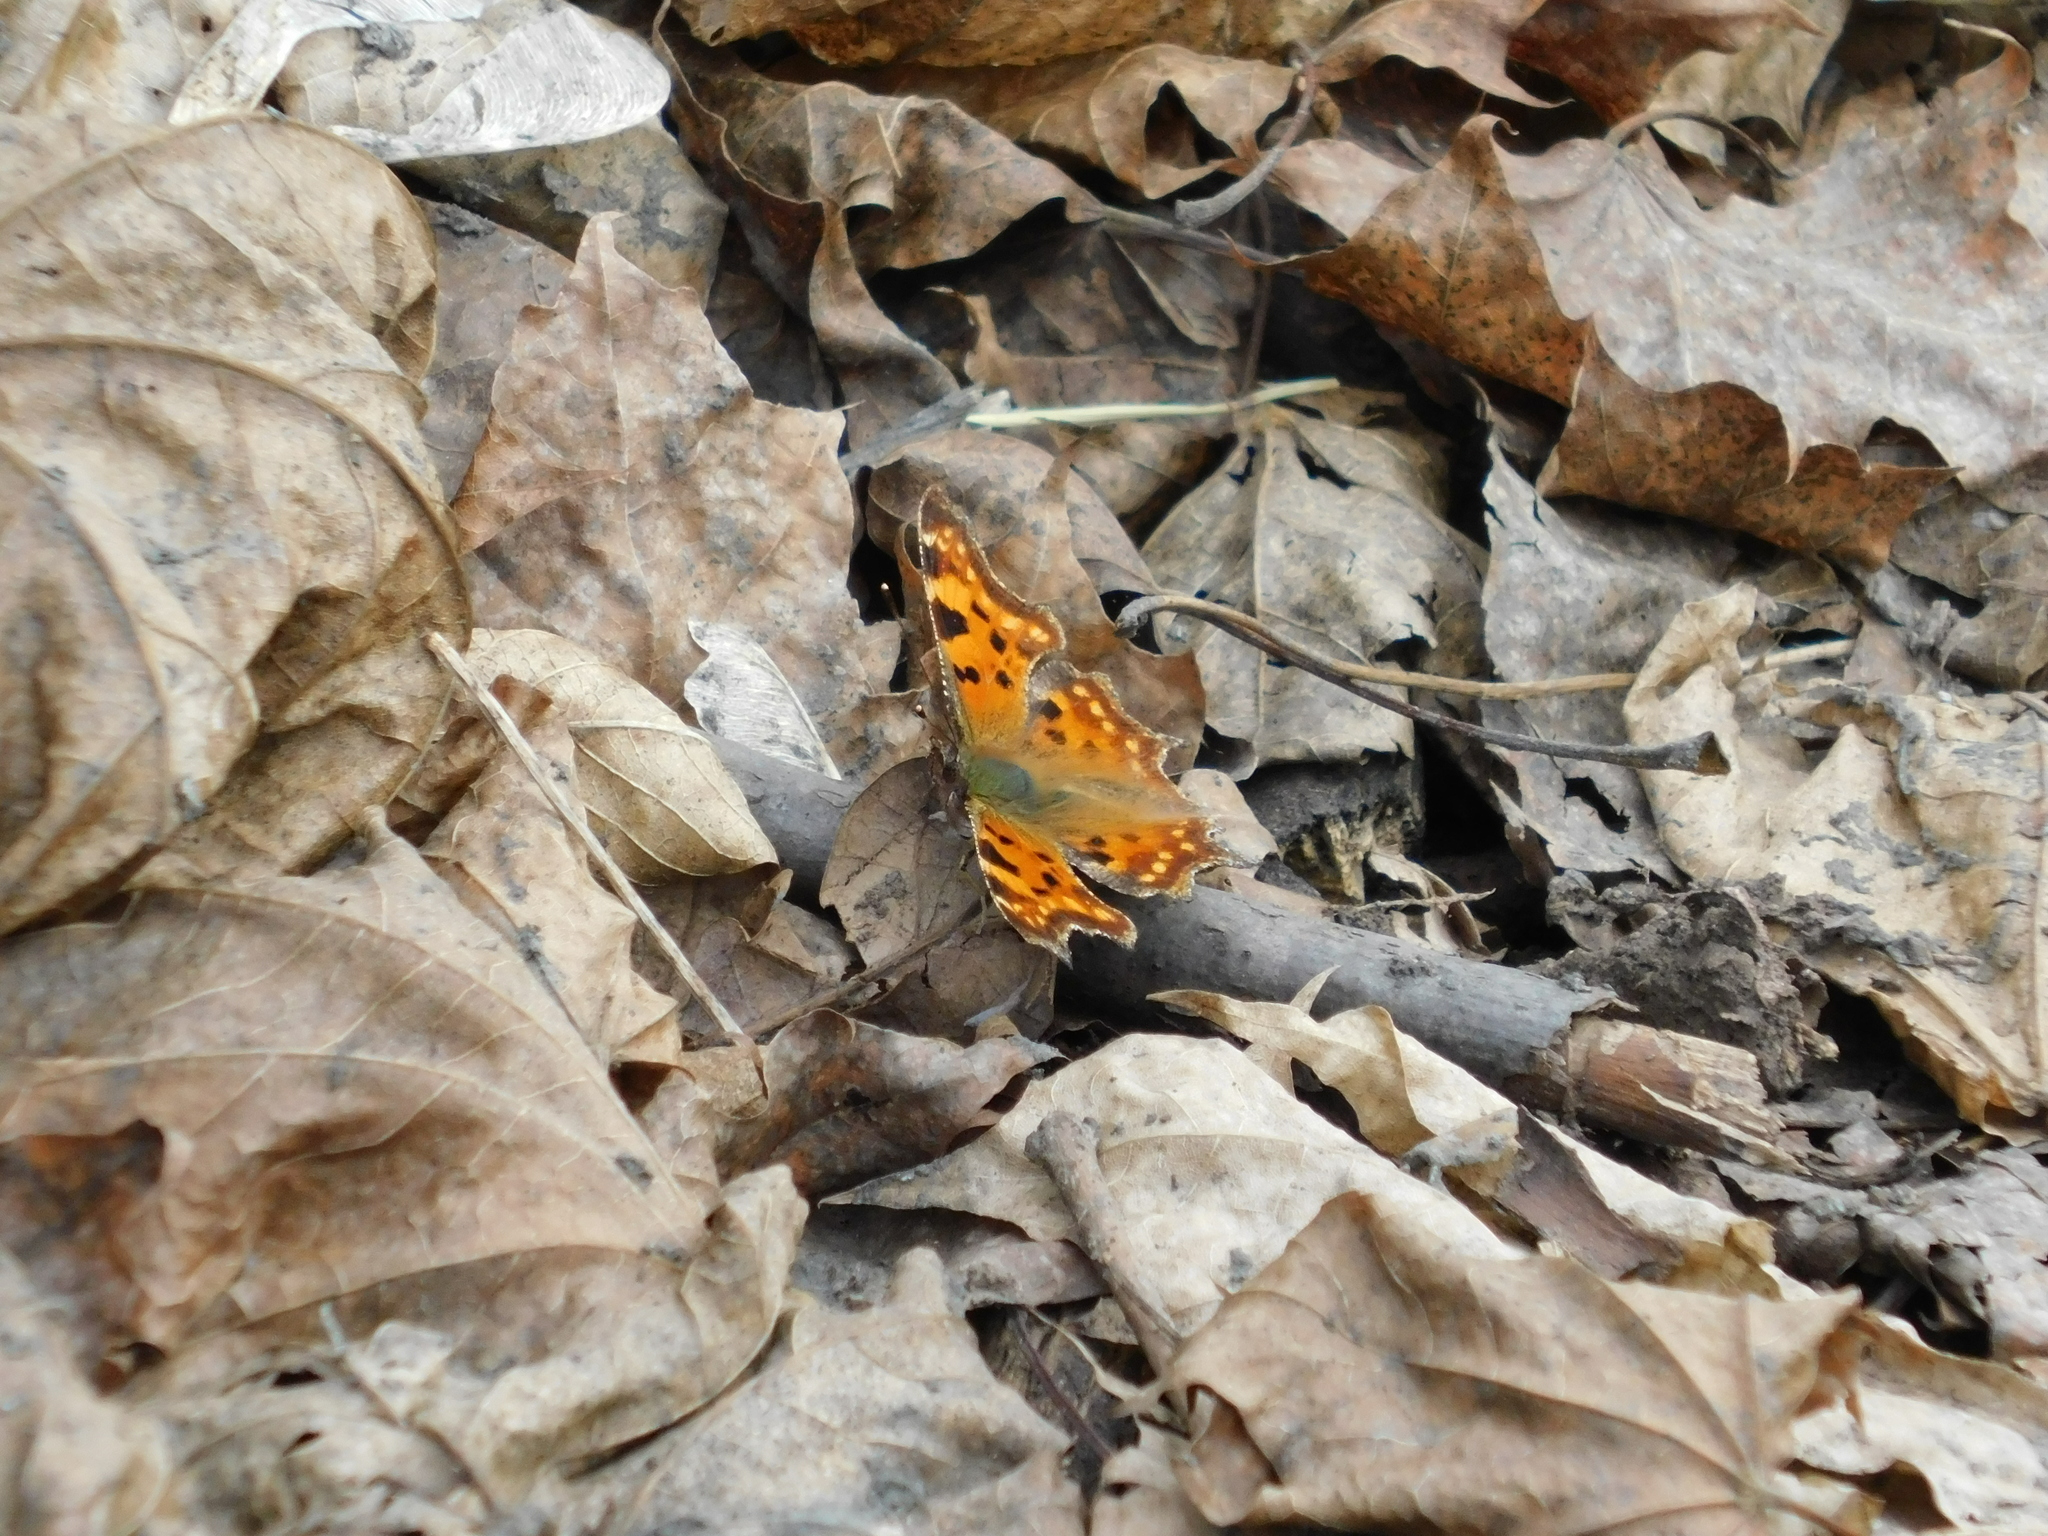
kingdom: Animalia
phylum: Arthropoda
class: Insecta
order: Lepidoptera
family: Nymphalidae
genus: Polygonia
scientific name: Polygonia c-album
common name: Comma
